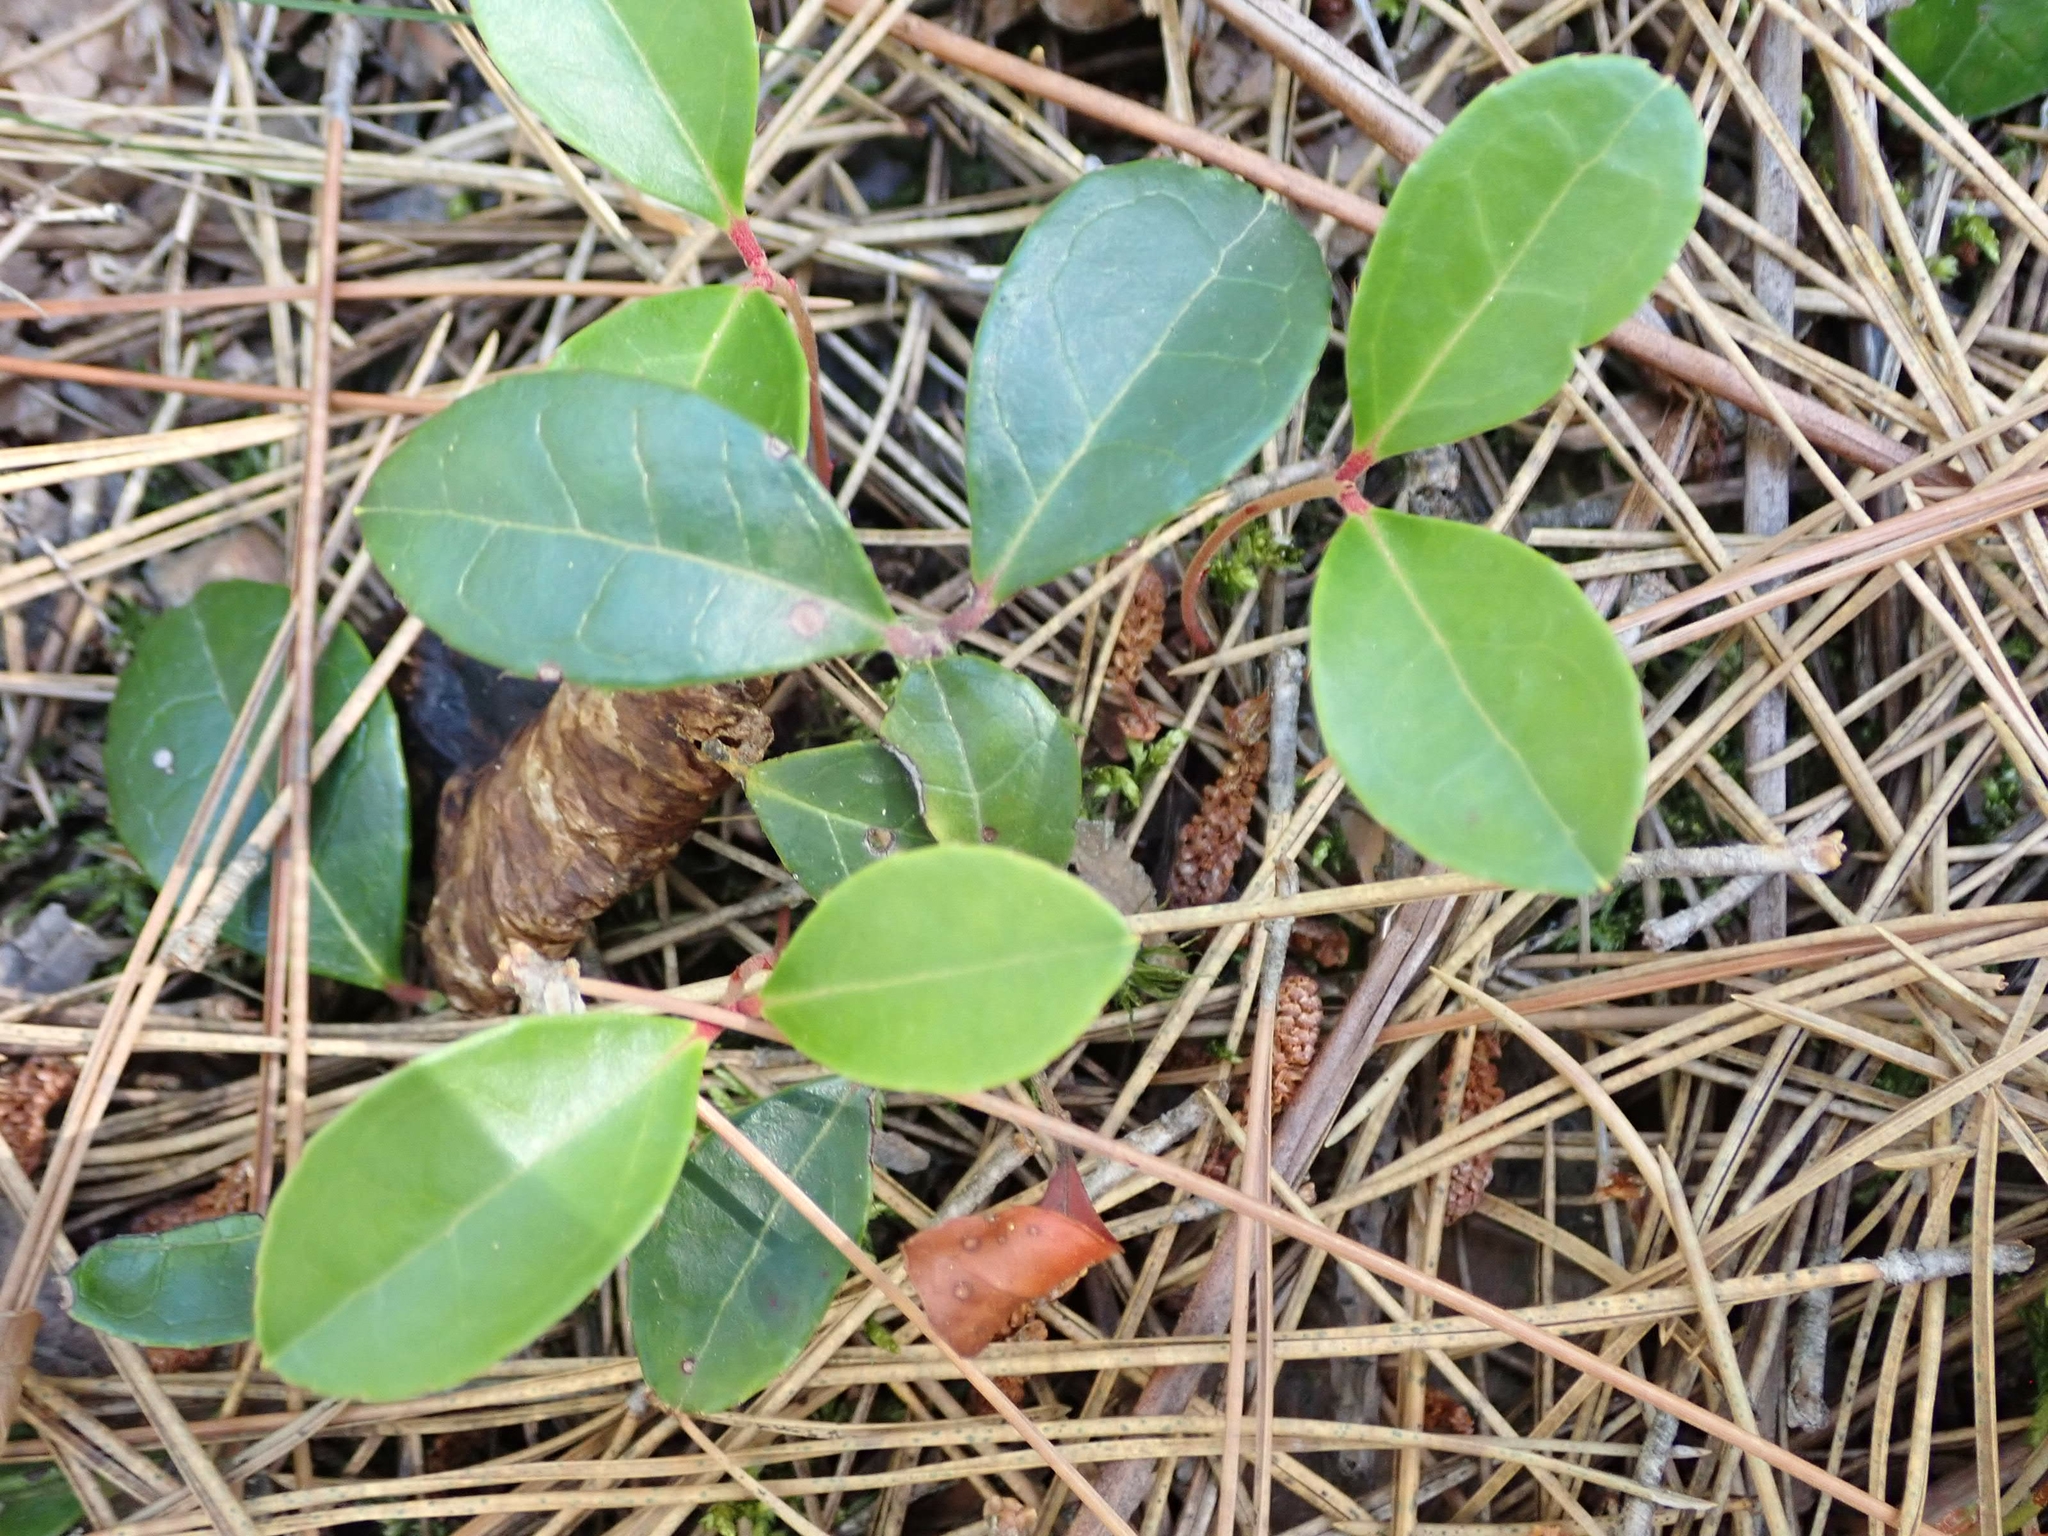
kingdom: Plantae
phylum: Tracheophyta
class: Magnoliopsida
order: Ericales
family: Ericaceae
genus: Gaultheria
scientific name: Gaultheria procumbens
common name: Checkerberry
